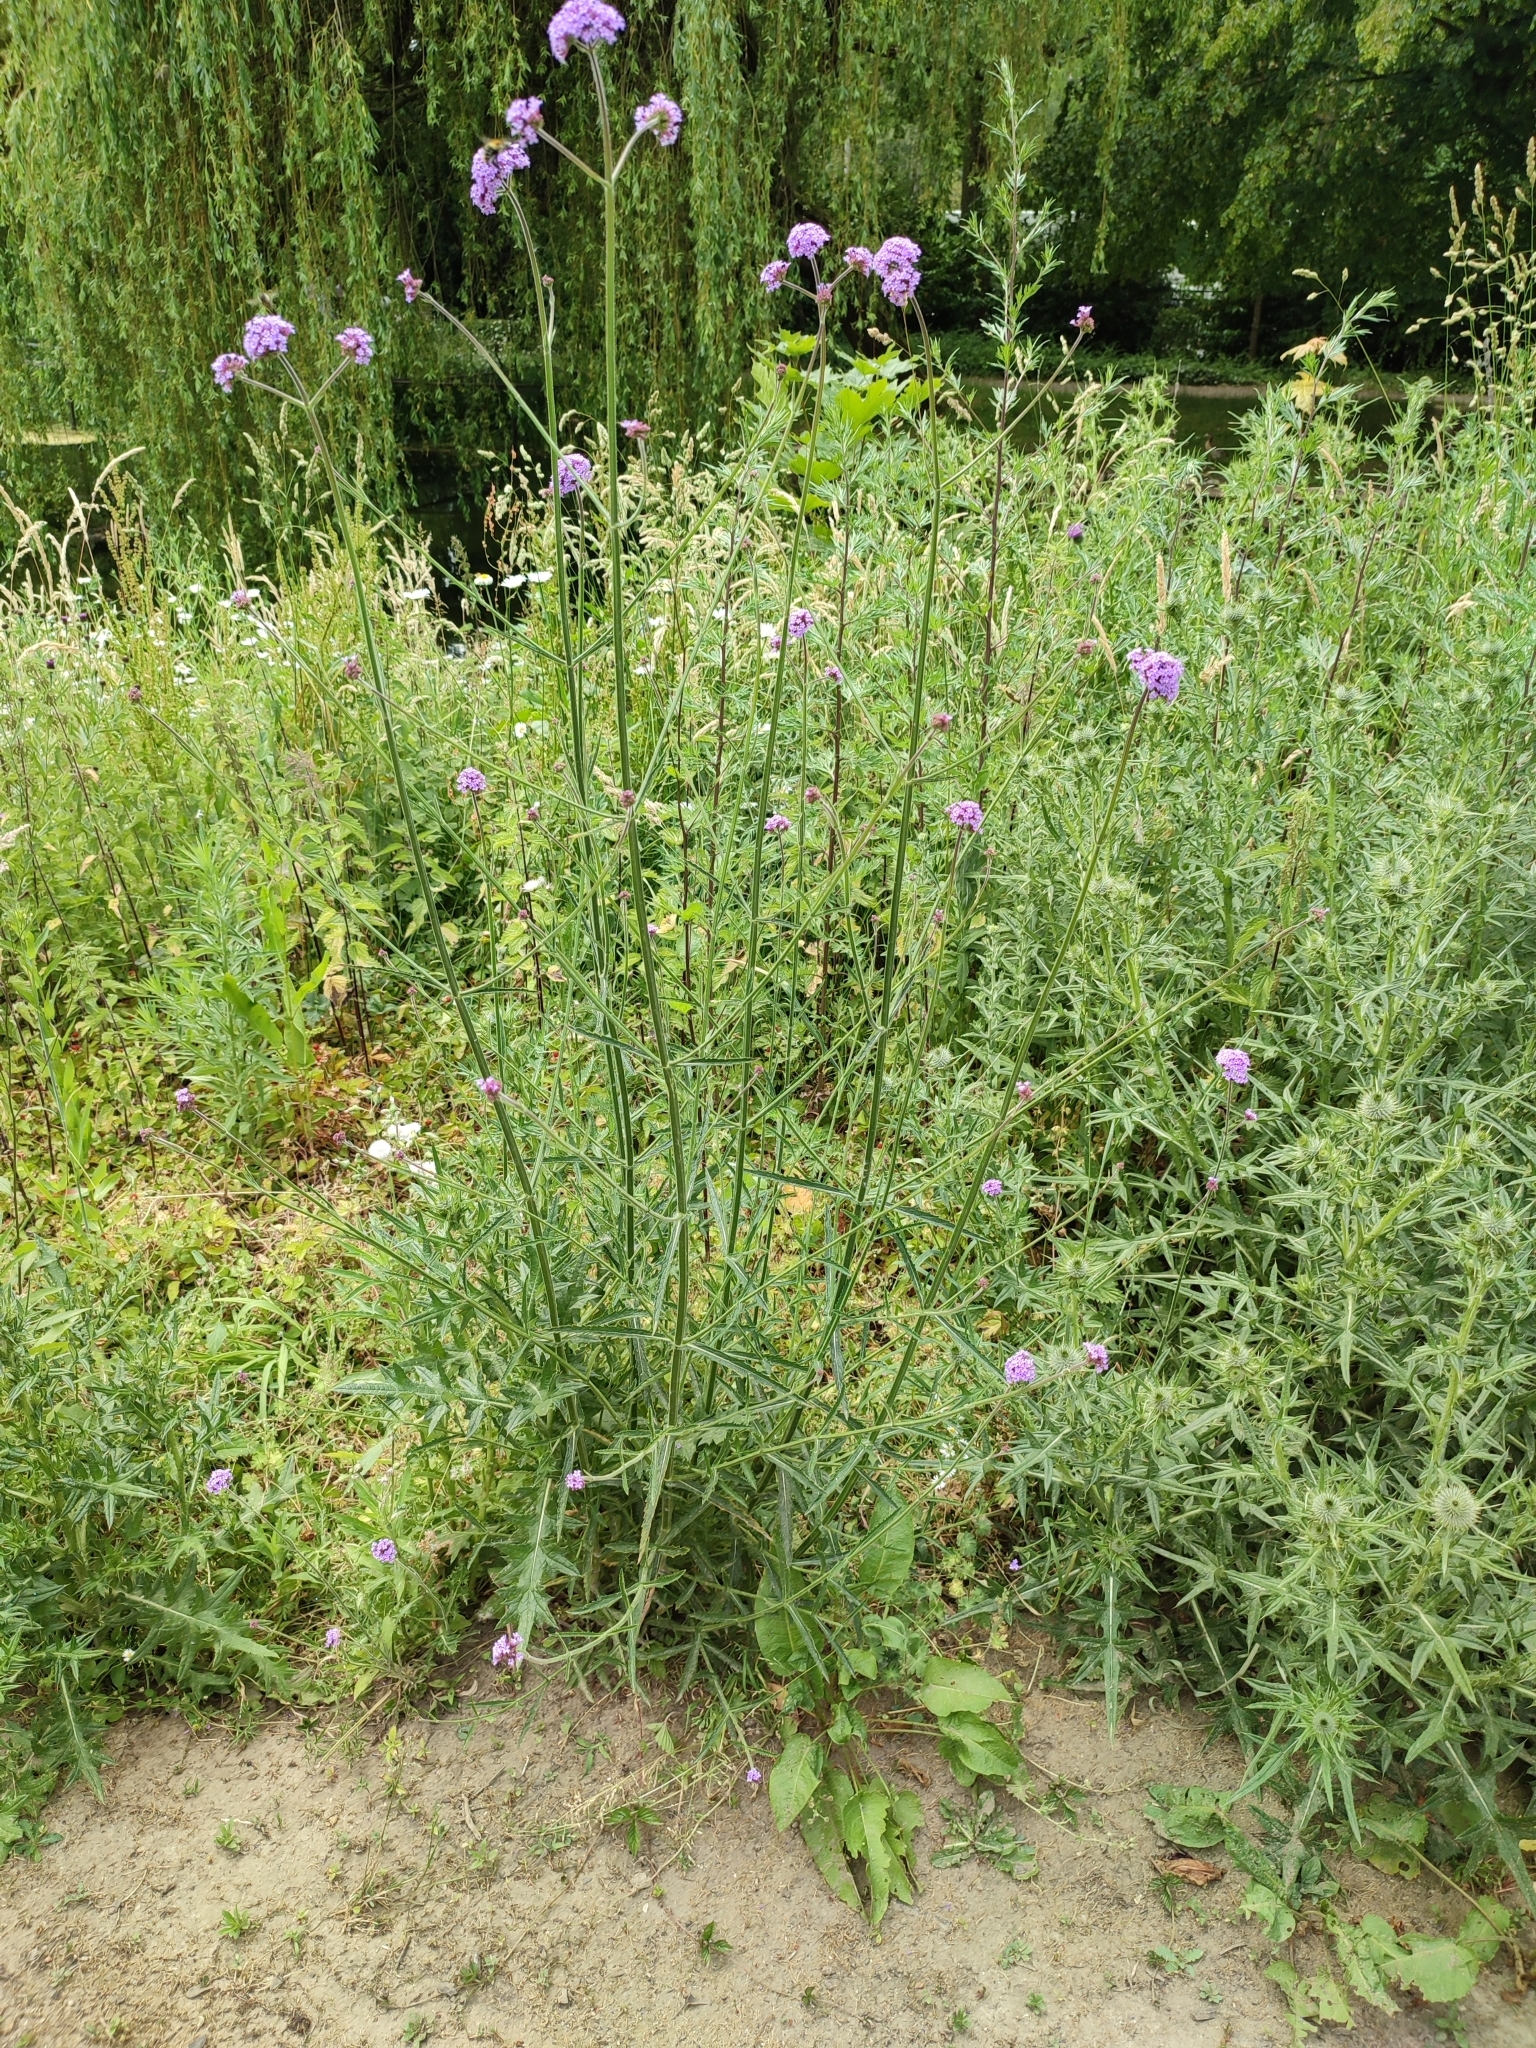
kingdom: Plantae
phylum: Tracheophyta
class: Magnoliopsida
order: Lamiales
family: Verbenaceae
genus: Verbena
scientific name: Verbena bonariensis
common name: Purpletop vervain
